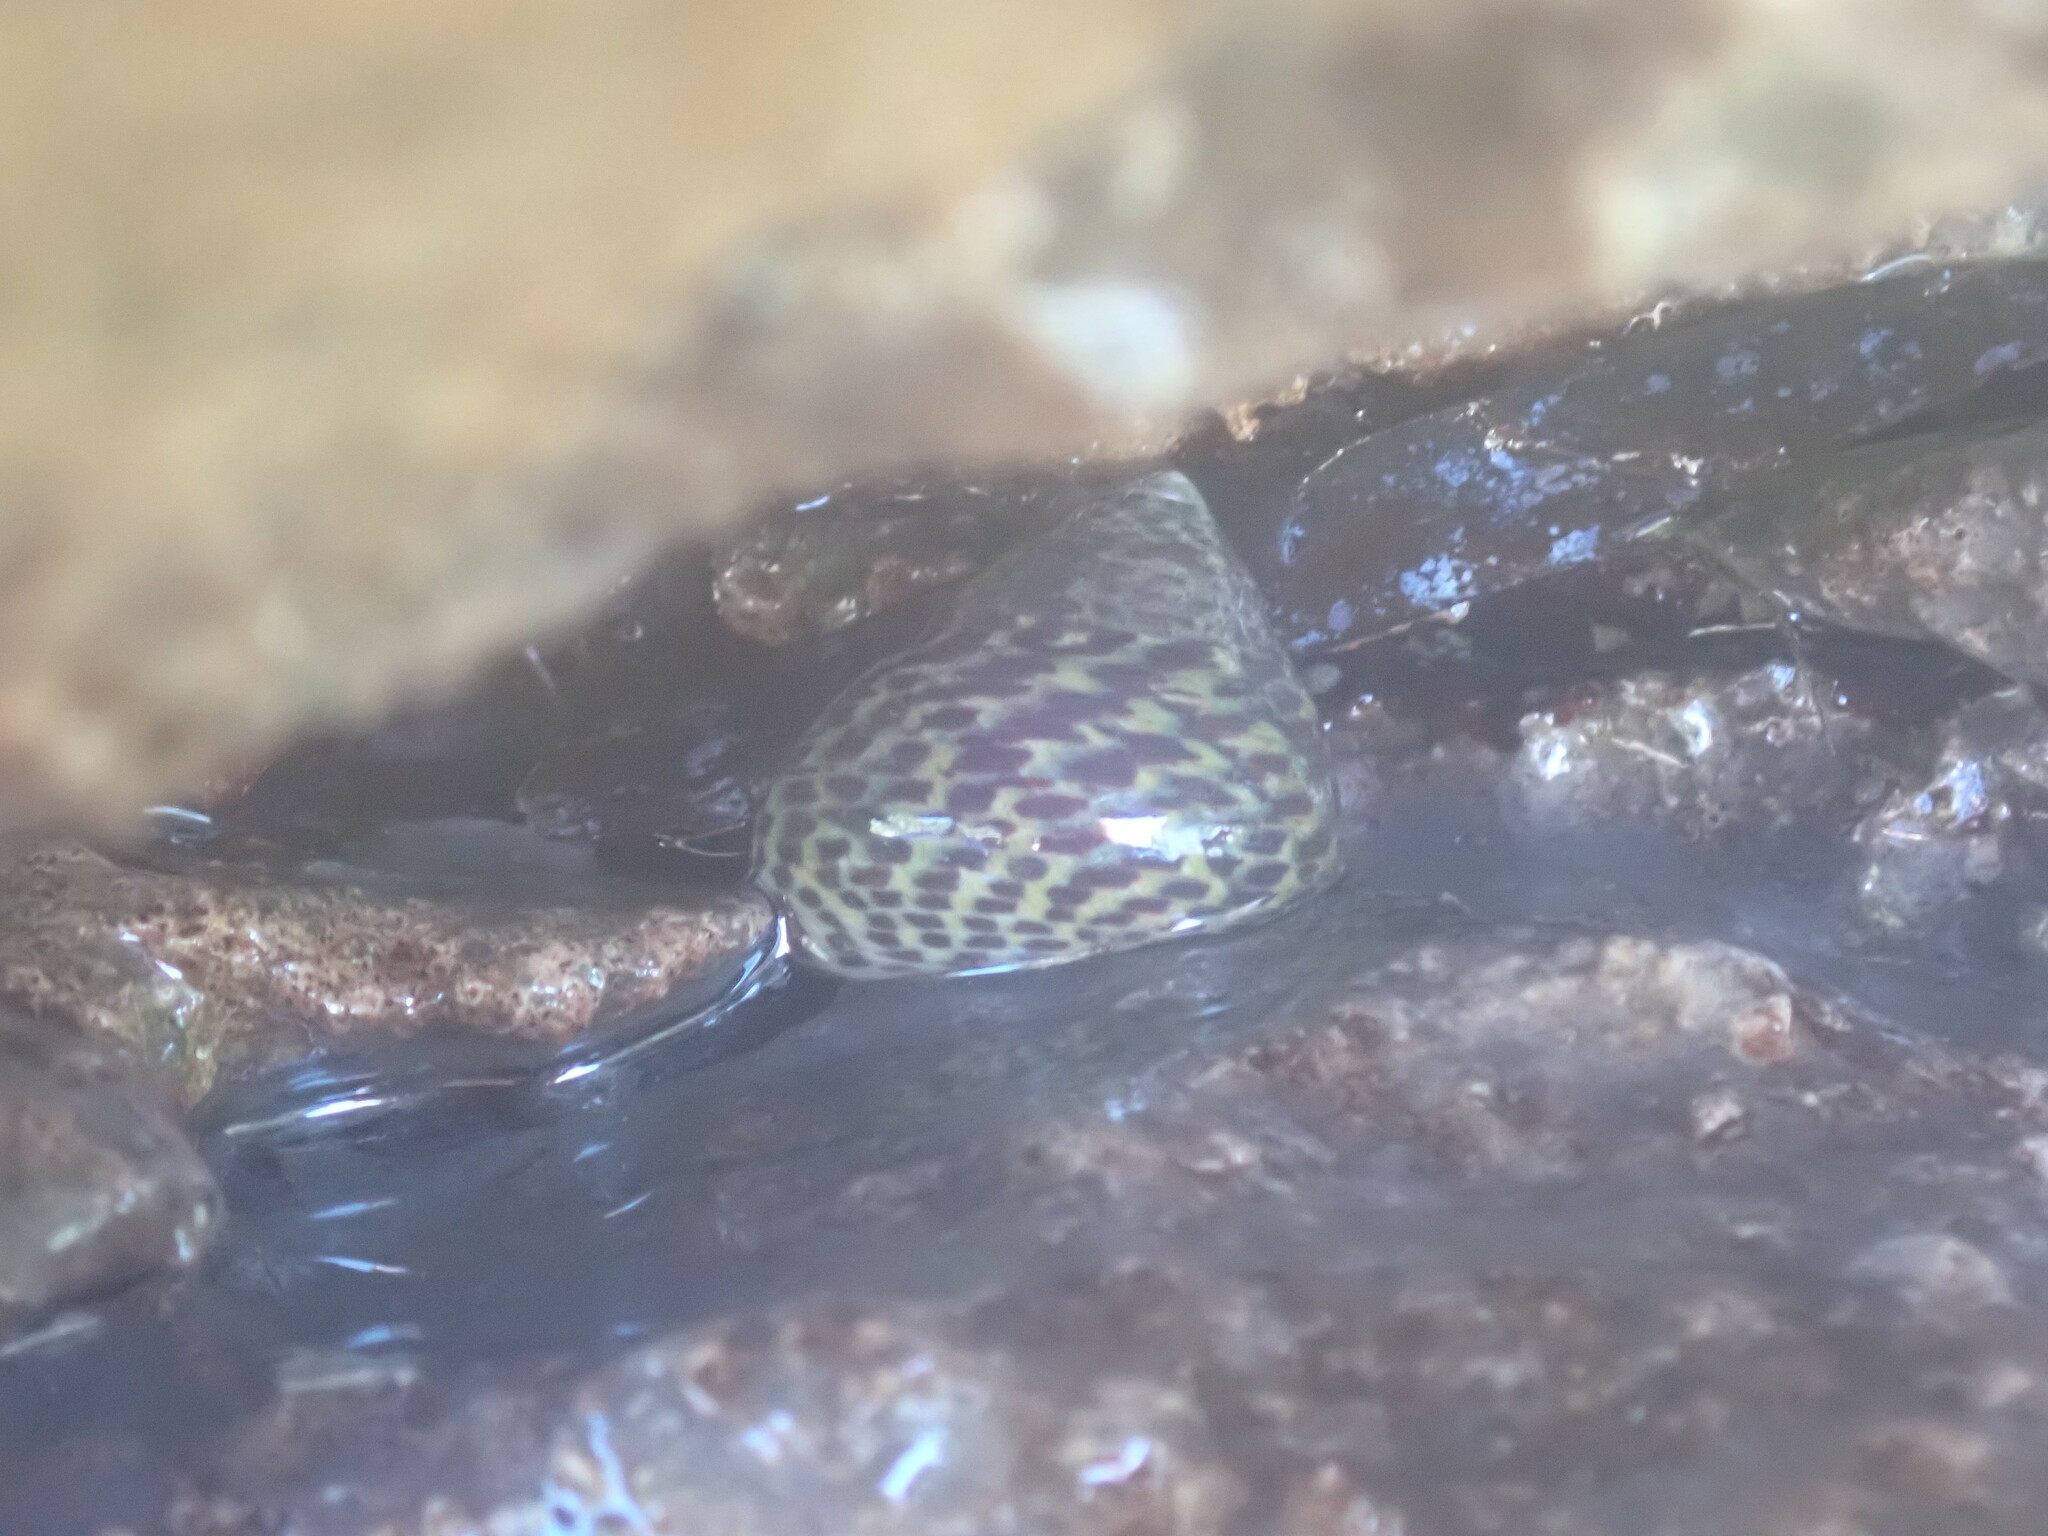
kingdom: Animalia
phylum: Mollusca
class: Gastropoda
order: Trochida
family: Trochidae
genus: Phorcus
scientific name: Phorcus turbinatus
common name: Turbinate monodont
